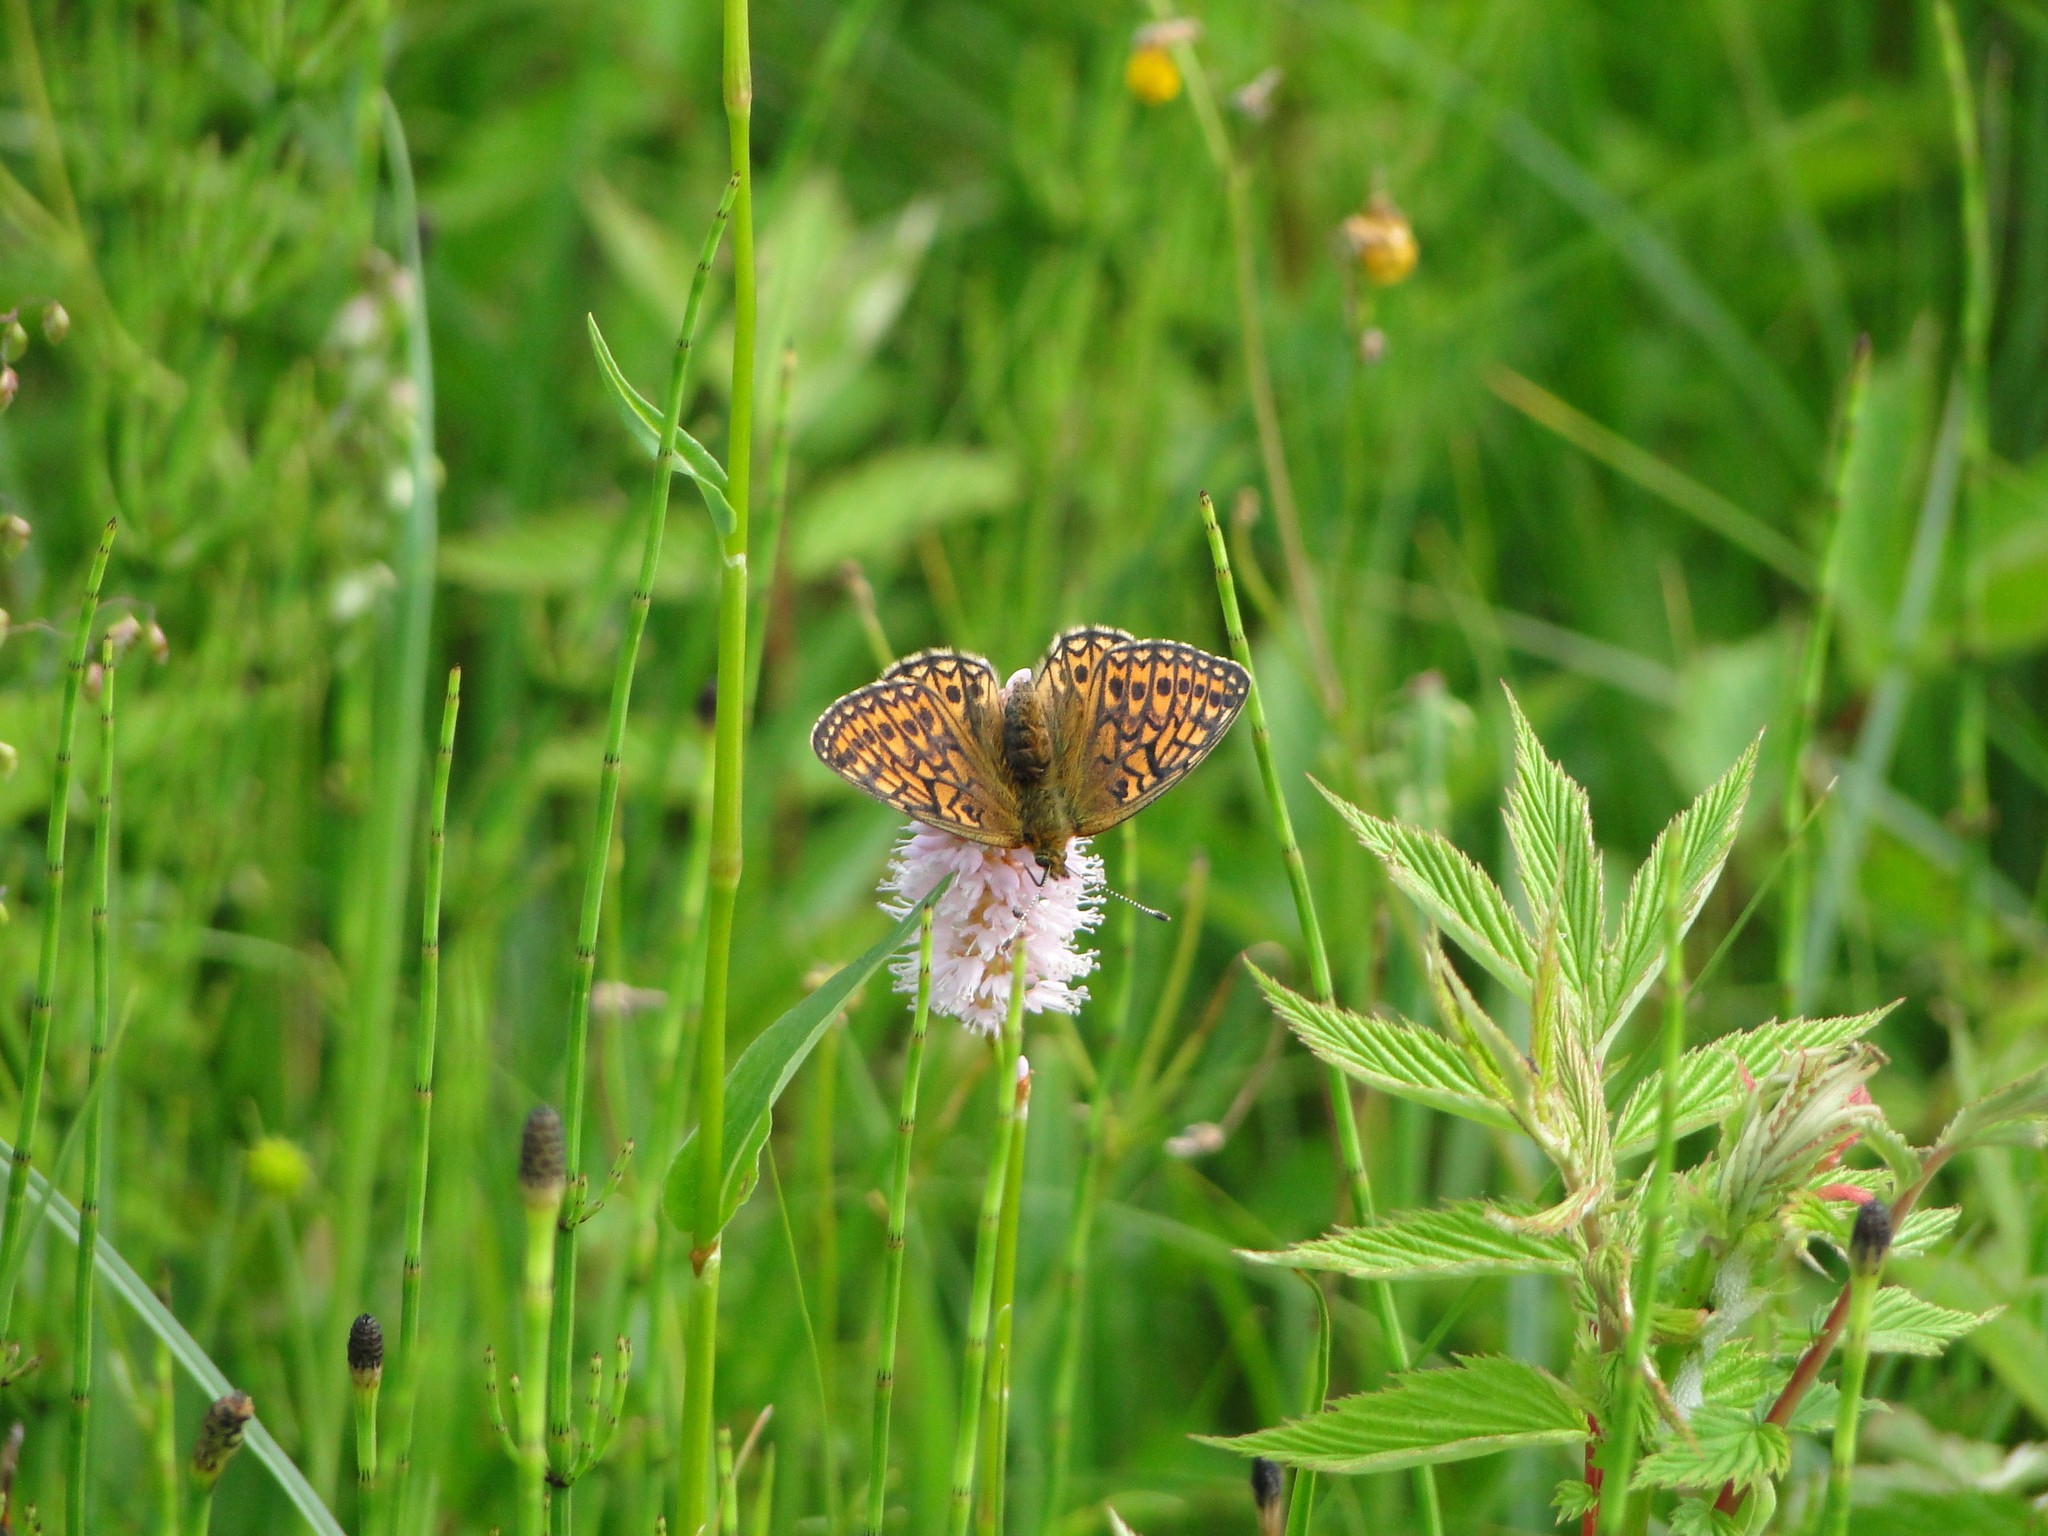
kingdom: Animalia
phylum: Arthropoda
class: Insecta
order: Lepidoptera
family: Nymphalidae
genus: Boloria
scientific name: Boloria eunomia
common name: Bog fritillary
